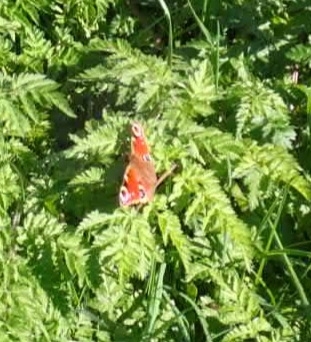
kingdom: Animalia
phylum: Arthropoda
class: Insecta
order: Lepidoptera
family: Nymphalidae
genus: Aglais
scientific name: Aglais io
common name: Peacock
